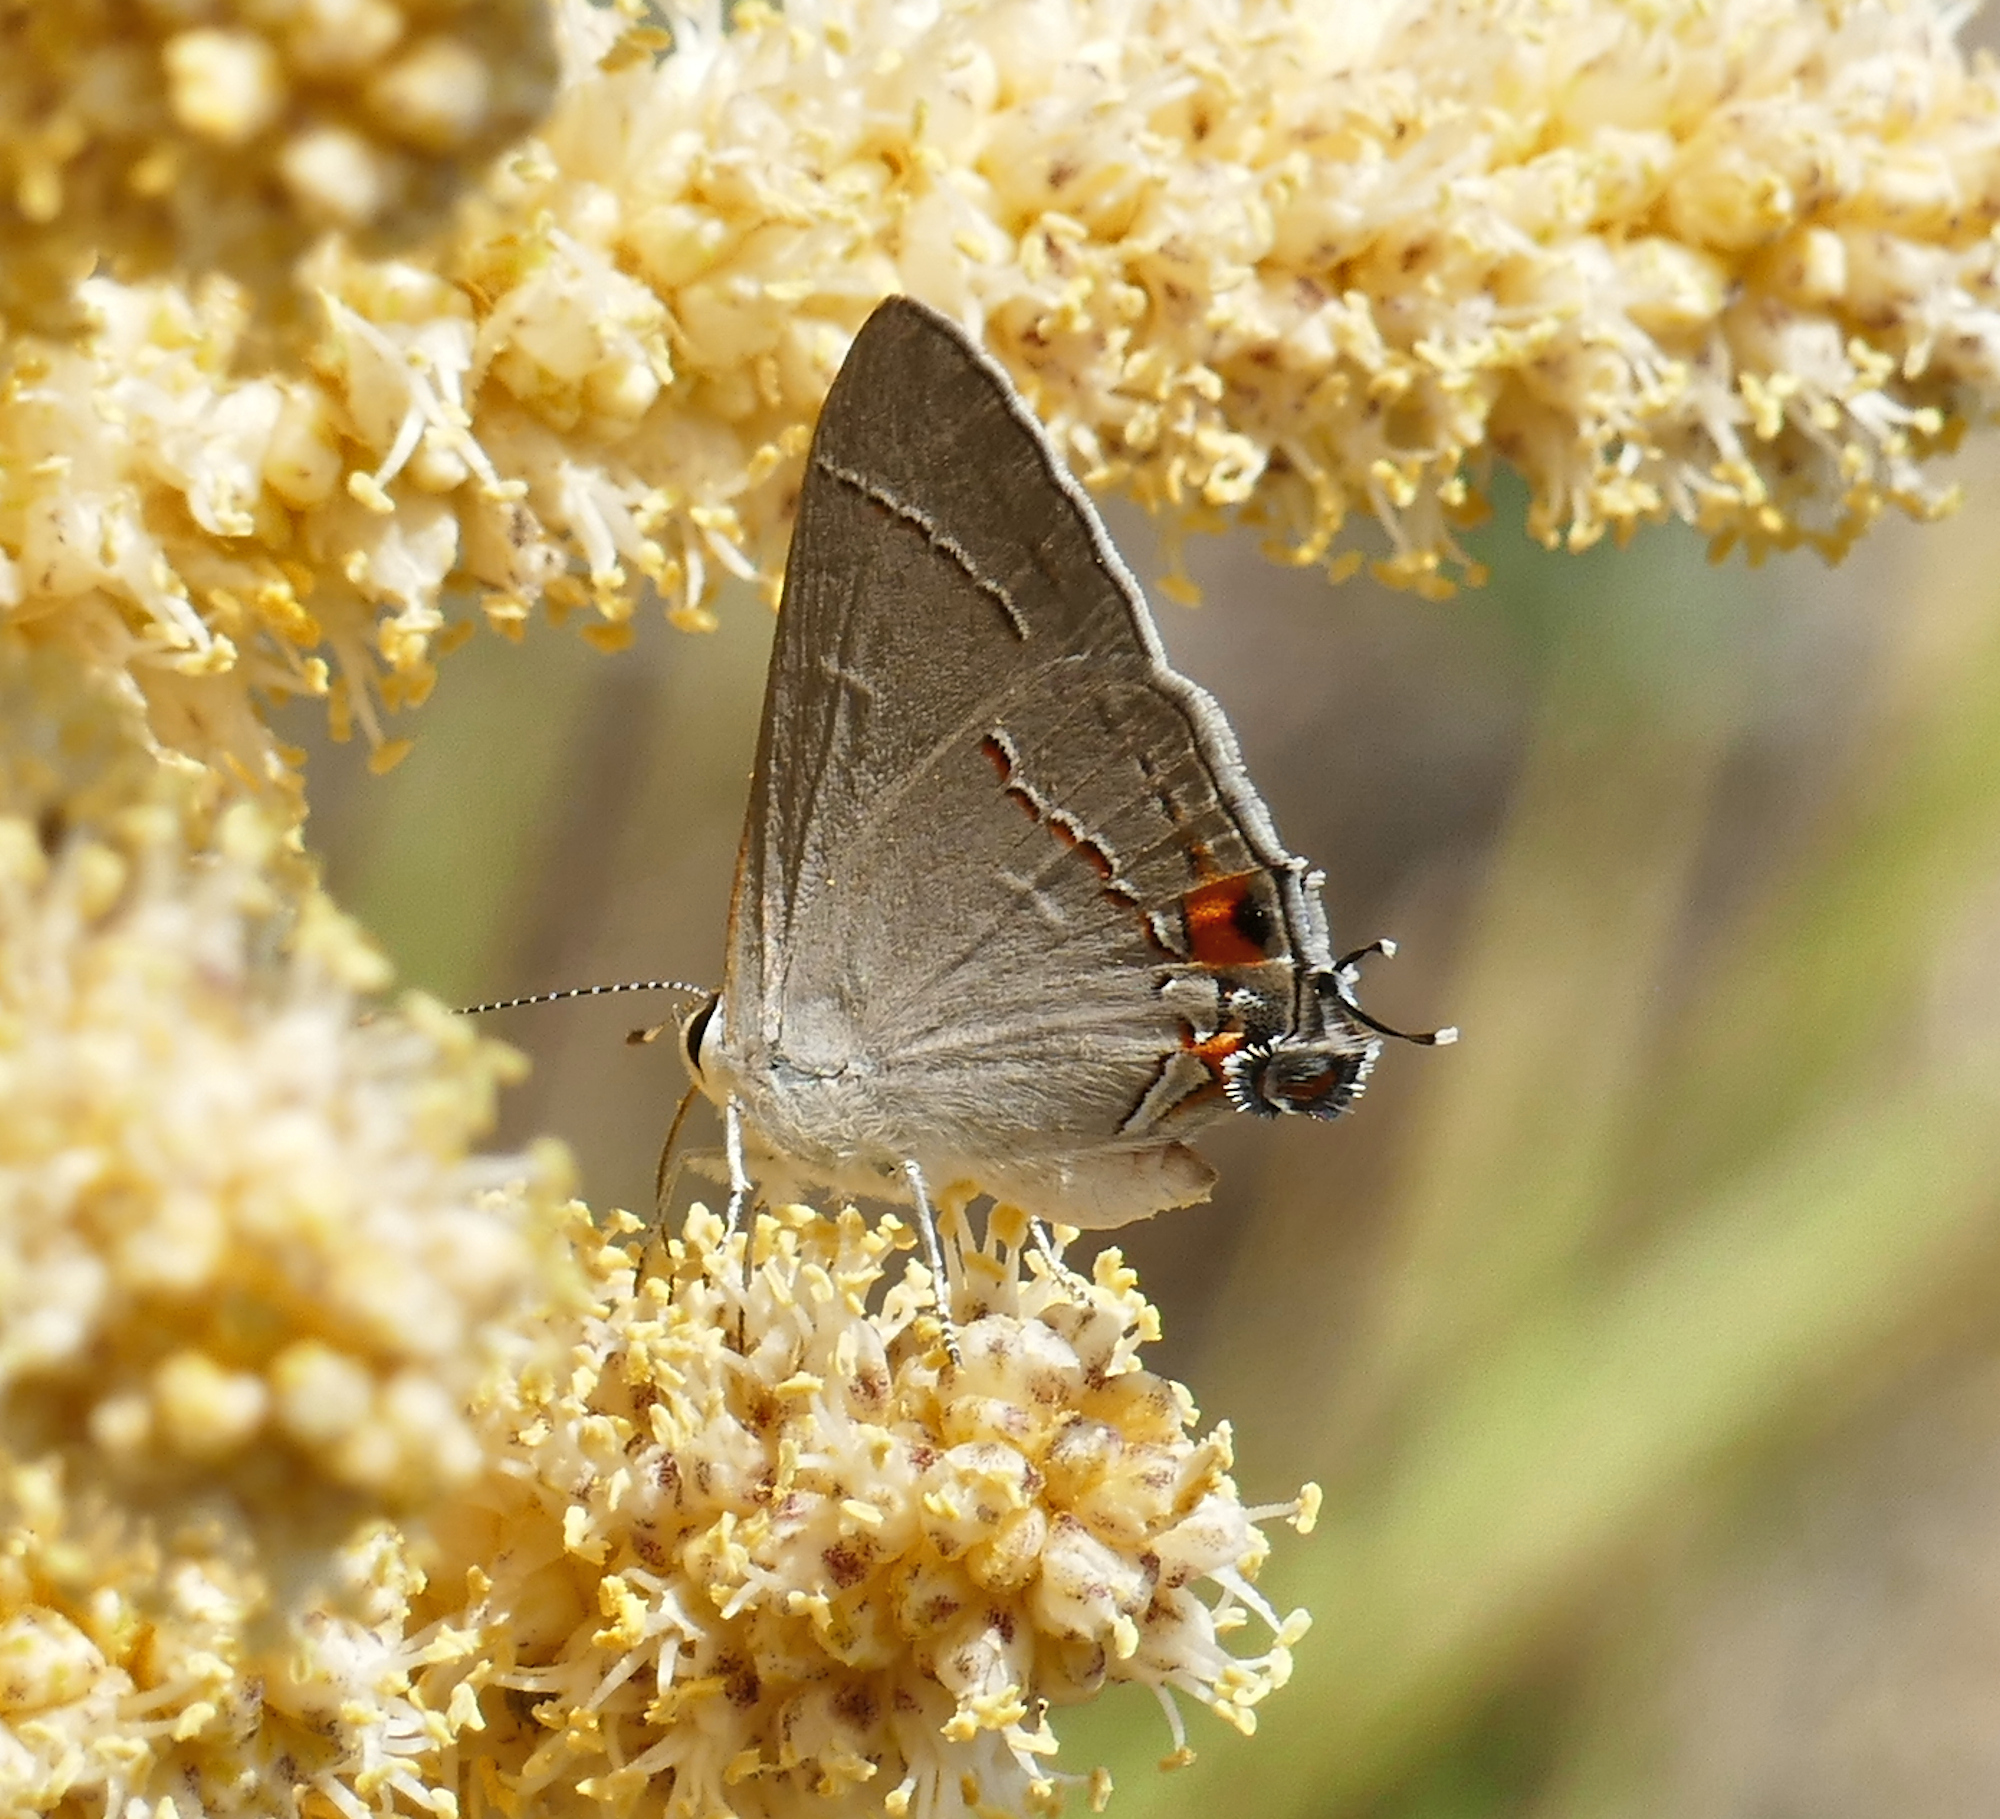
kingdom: Animalia
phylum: Arthropoda
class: Insecta
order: Lepidoptera
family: Lycaenidae
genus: Strymon
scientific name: Strymon melinus
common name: Gray hairstreak
